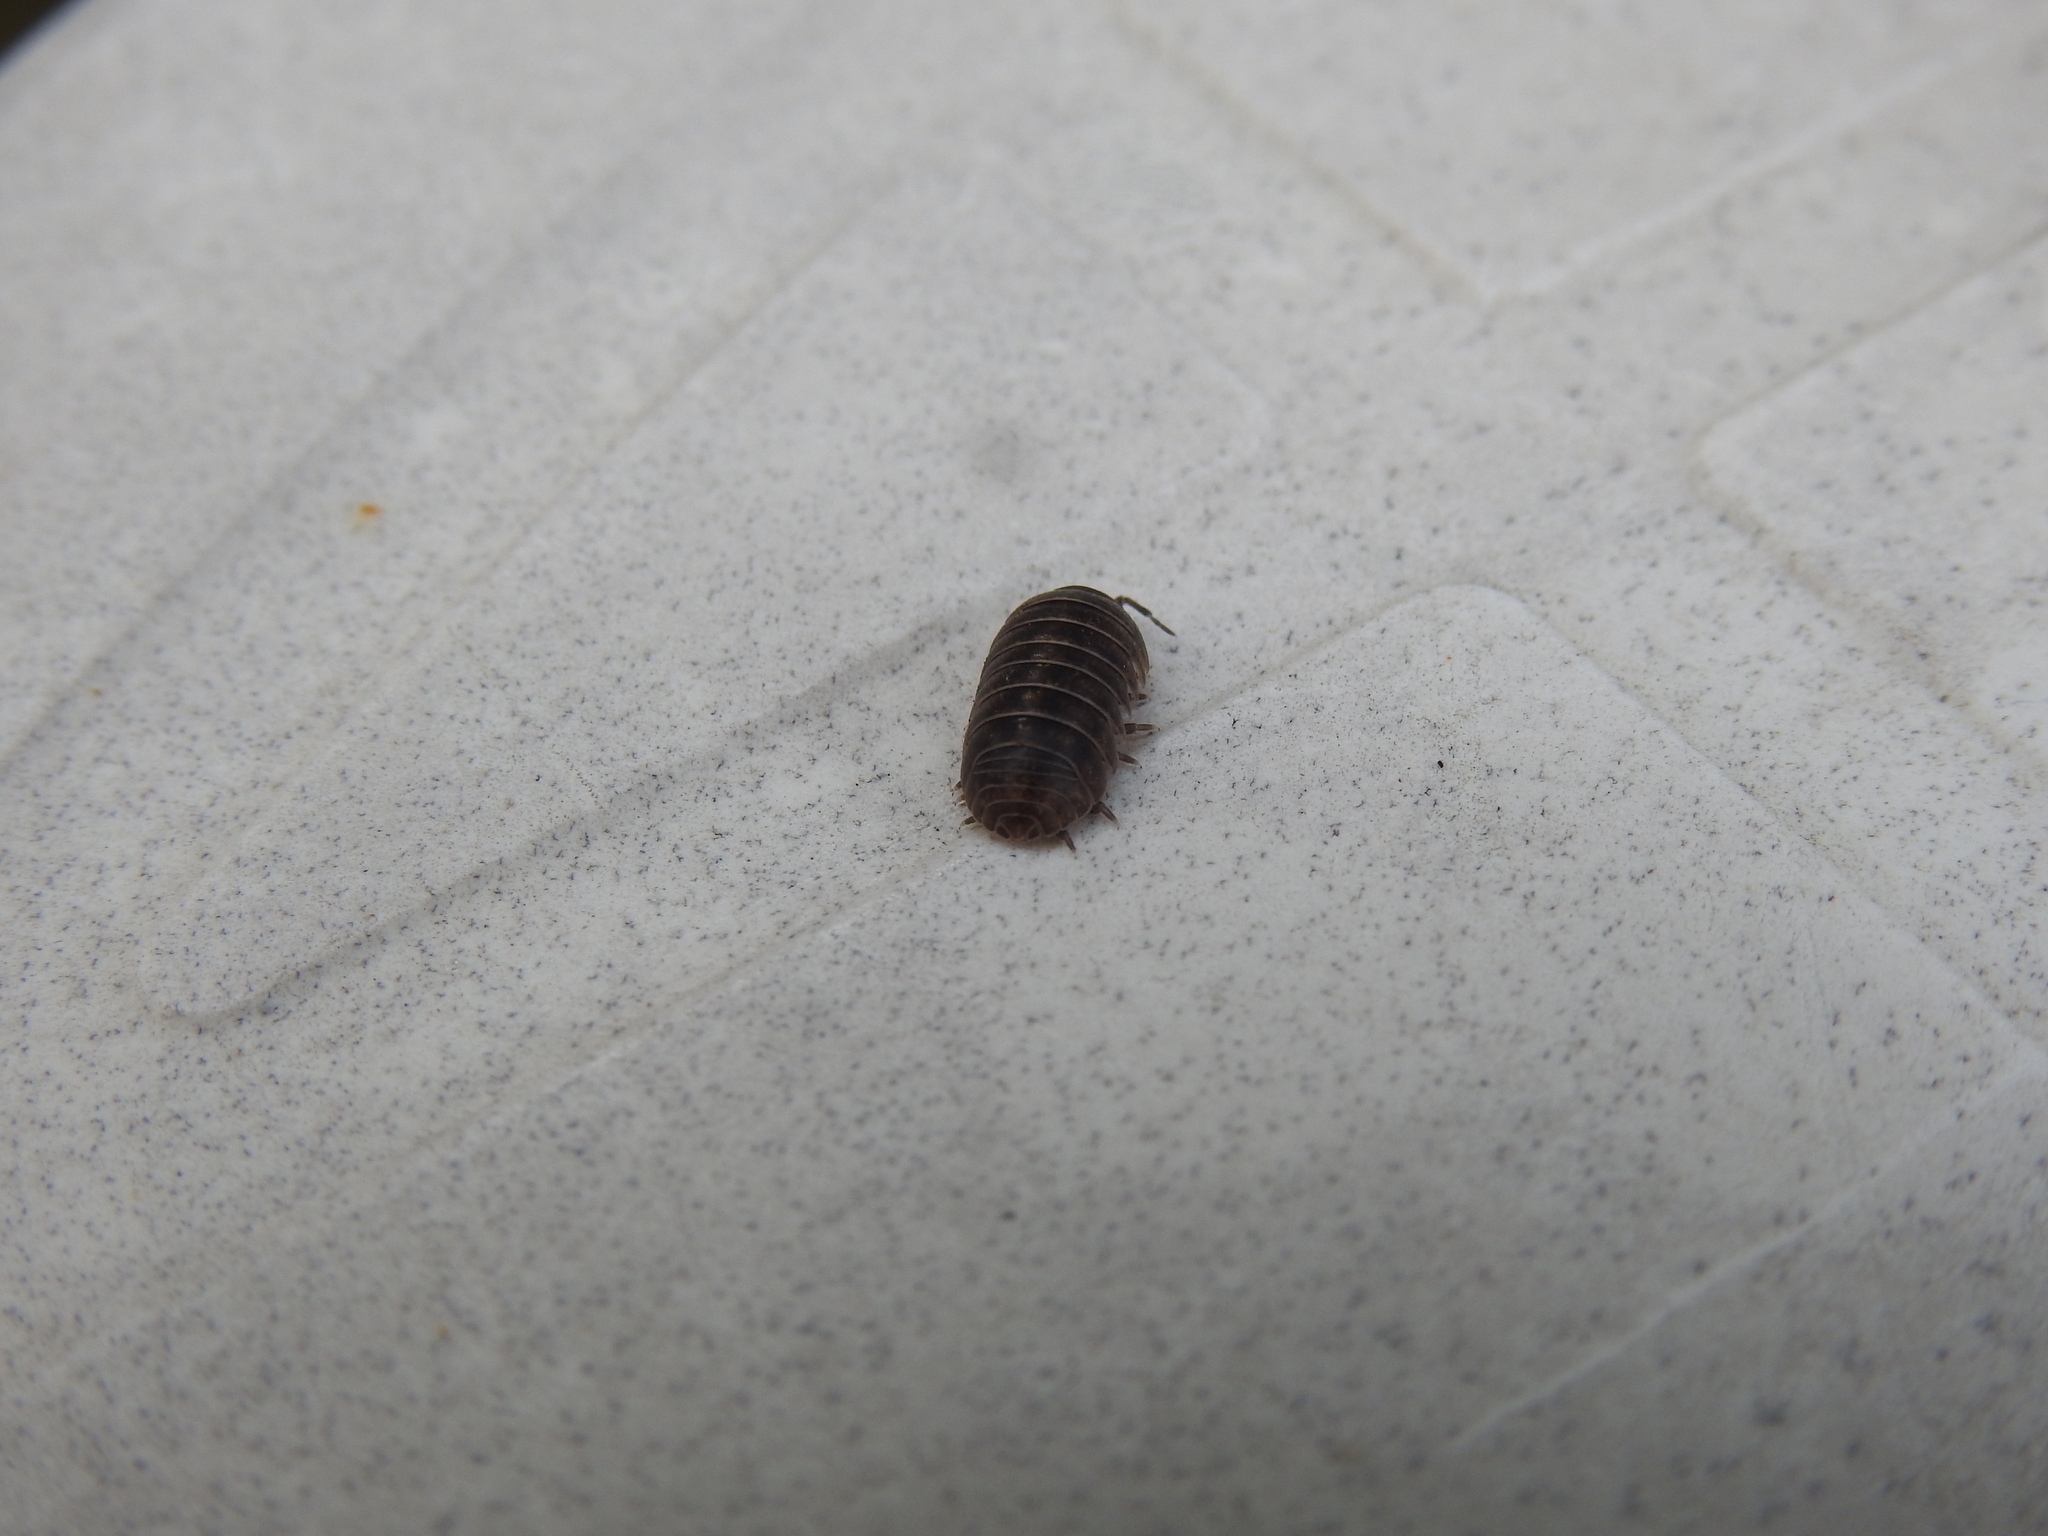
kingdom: Animalia
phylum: Arthropoda
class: Malacostraca
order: Isopoda
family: Armadillidiidae
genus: Armadillidium
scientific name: Armadillidium vulgare
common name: Common pill woodlouse
